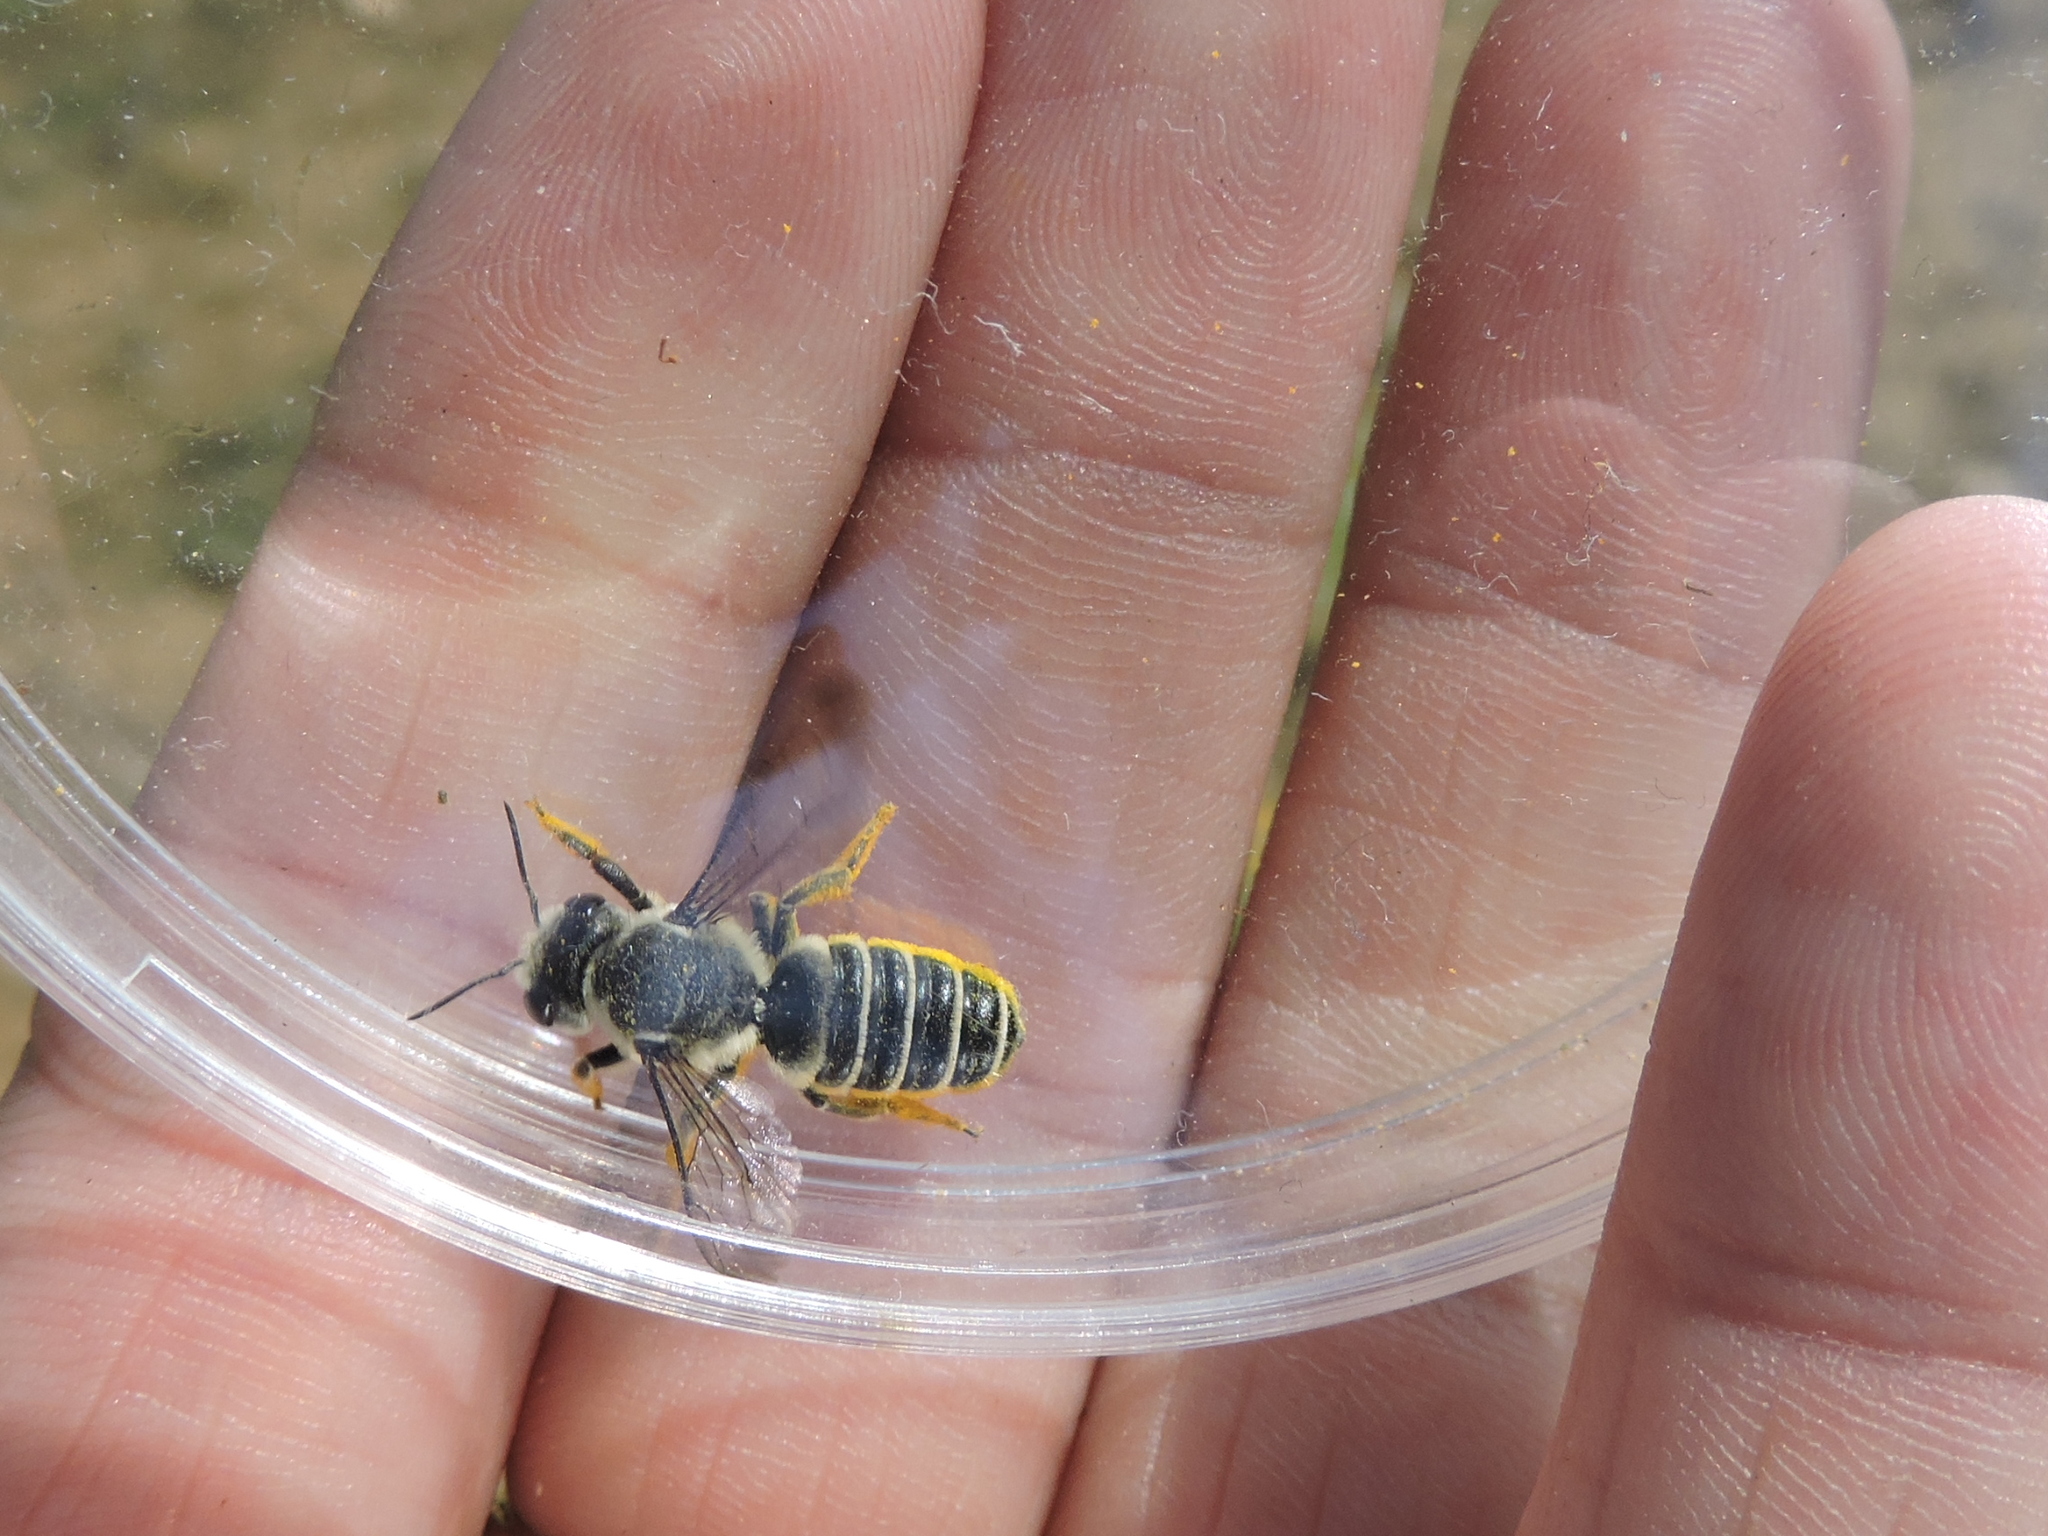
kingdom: Animalia
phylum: Arthropoda
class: Insecta
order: Hymenoptera
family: Megachilidae
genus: Megachile
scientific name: Megachile policaris
